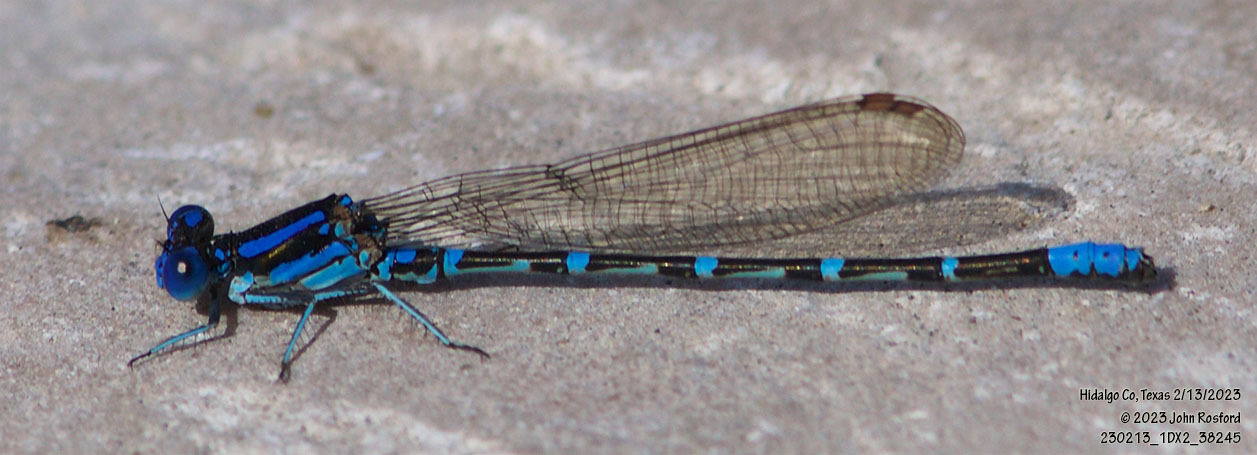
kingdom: Animalia
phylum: Arthropoda
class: Insecta
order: Odonata
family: Coenagrionidae
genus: Argia
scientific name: Argia sedula
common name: Blue-ringed dancer
